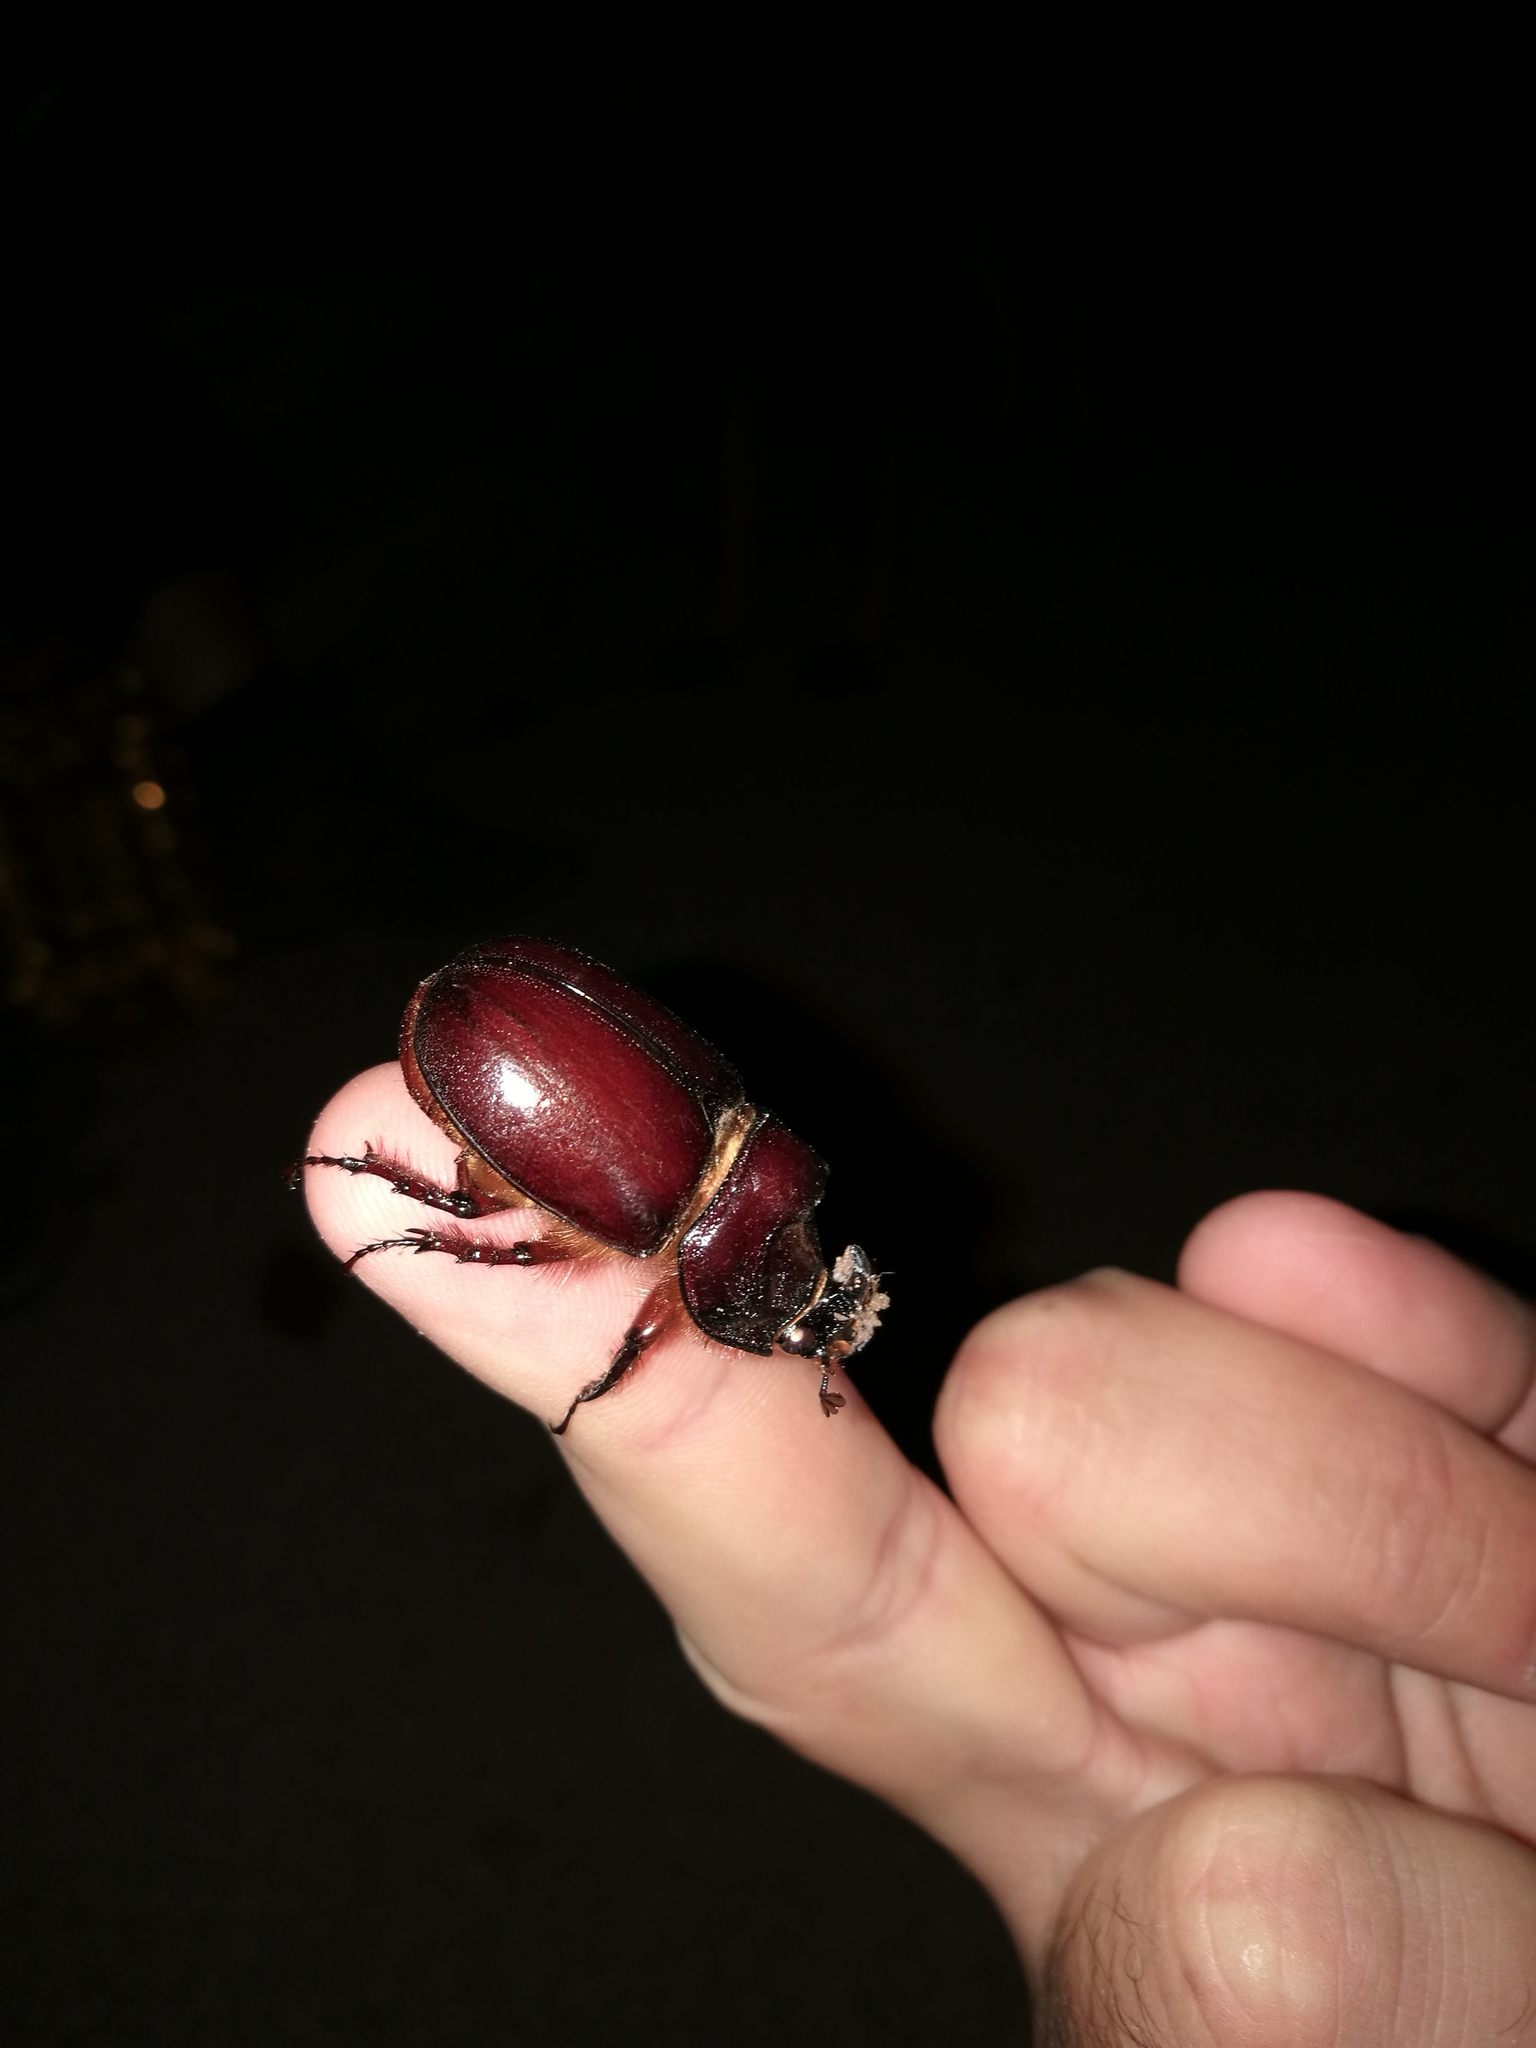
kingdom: Animalia
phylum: Arthropoda
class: Insecta
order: Coleoptera
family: Scarabaeidae
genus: Oryctes
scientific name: Oryctes nasicornis
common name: European rhinoceros beetle
